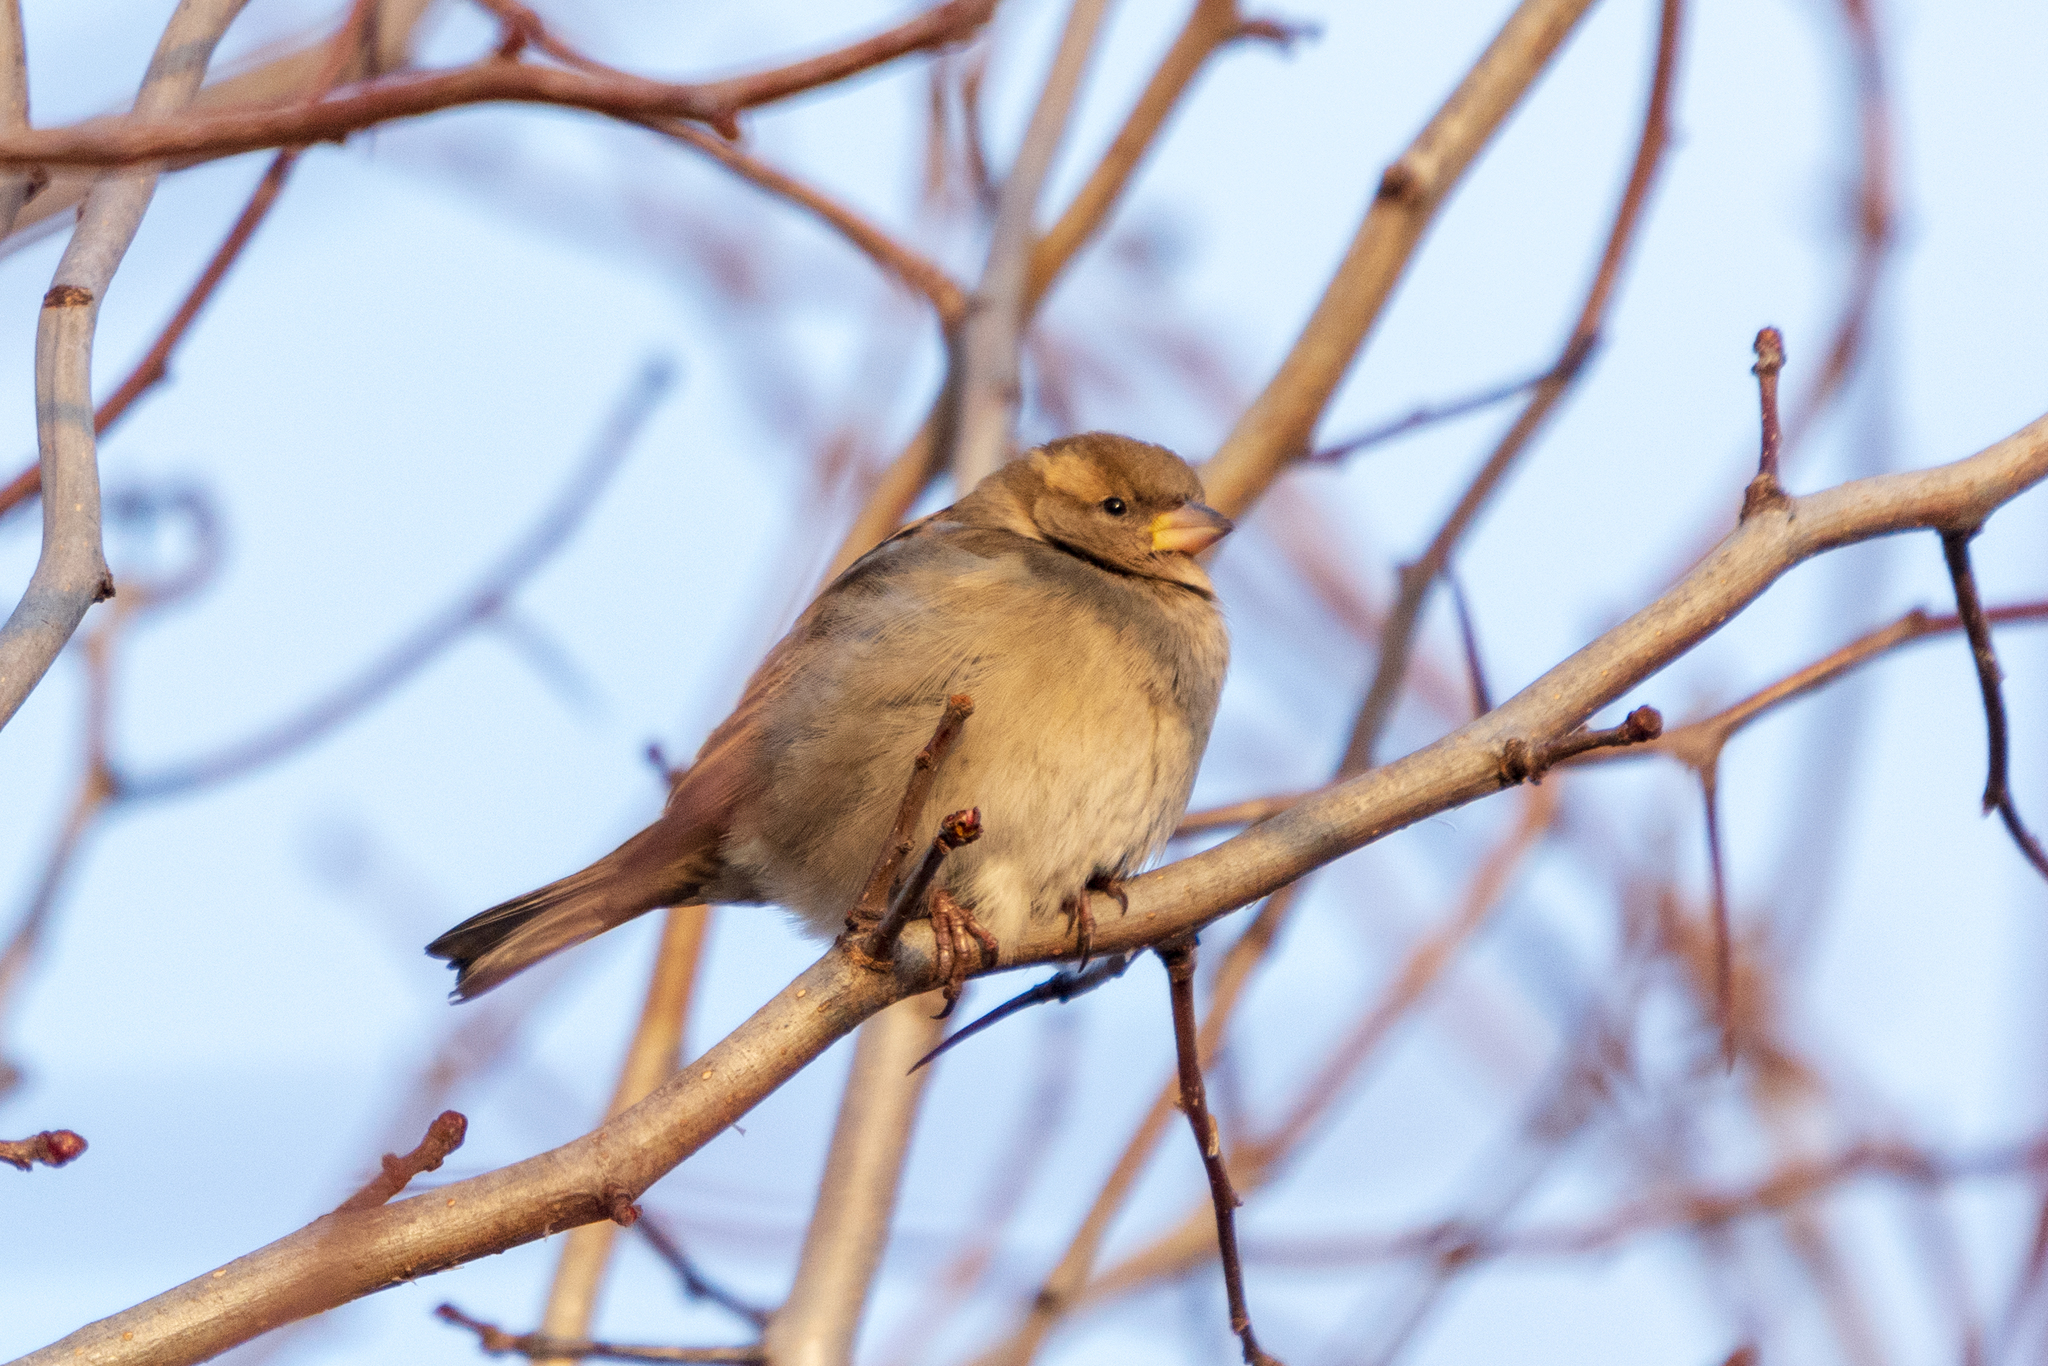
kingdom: Animalia
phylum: Chordata
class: Aves
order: Passeriformes
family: Passeridae
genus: Passer
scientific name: Passer domesticus
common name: House sparrow
